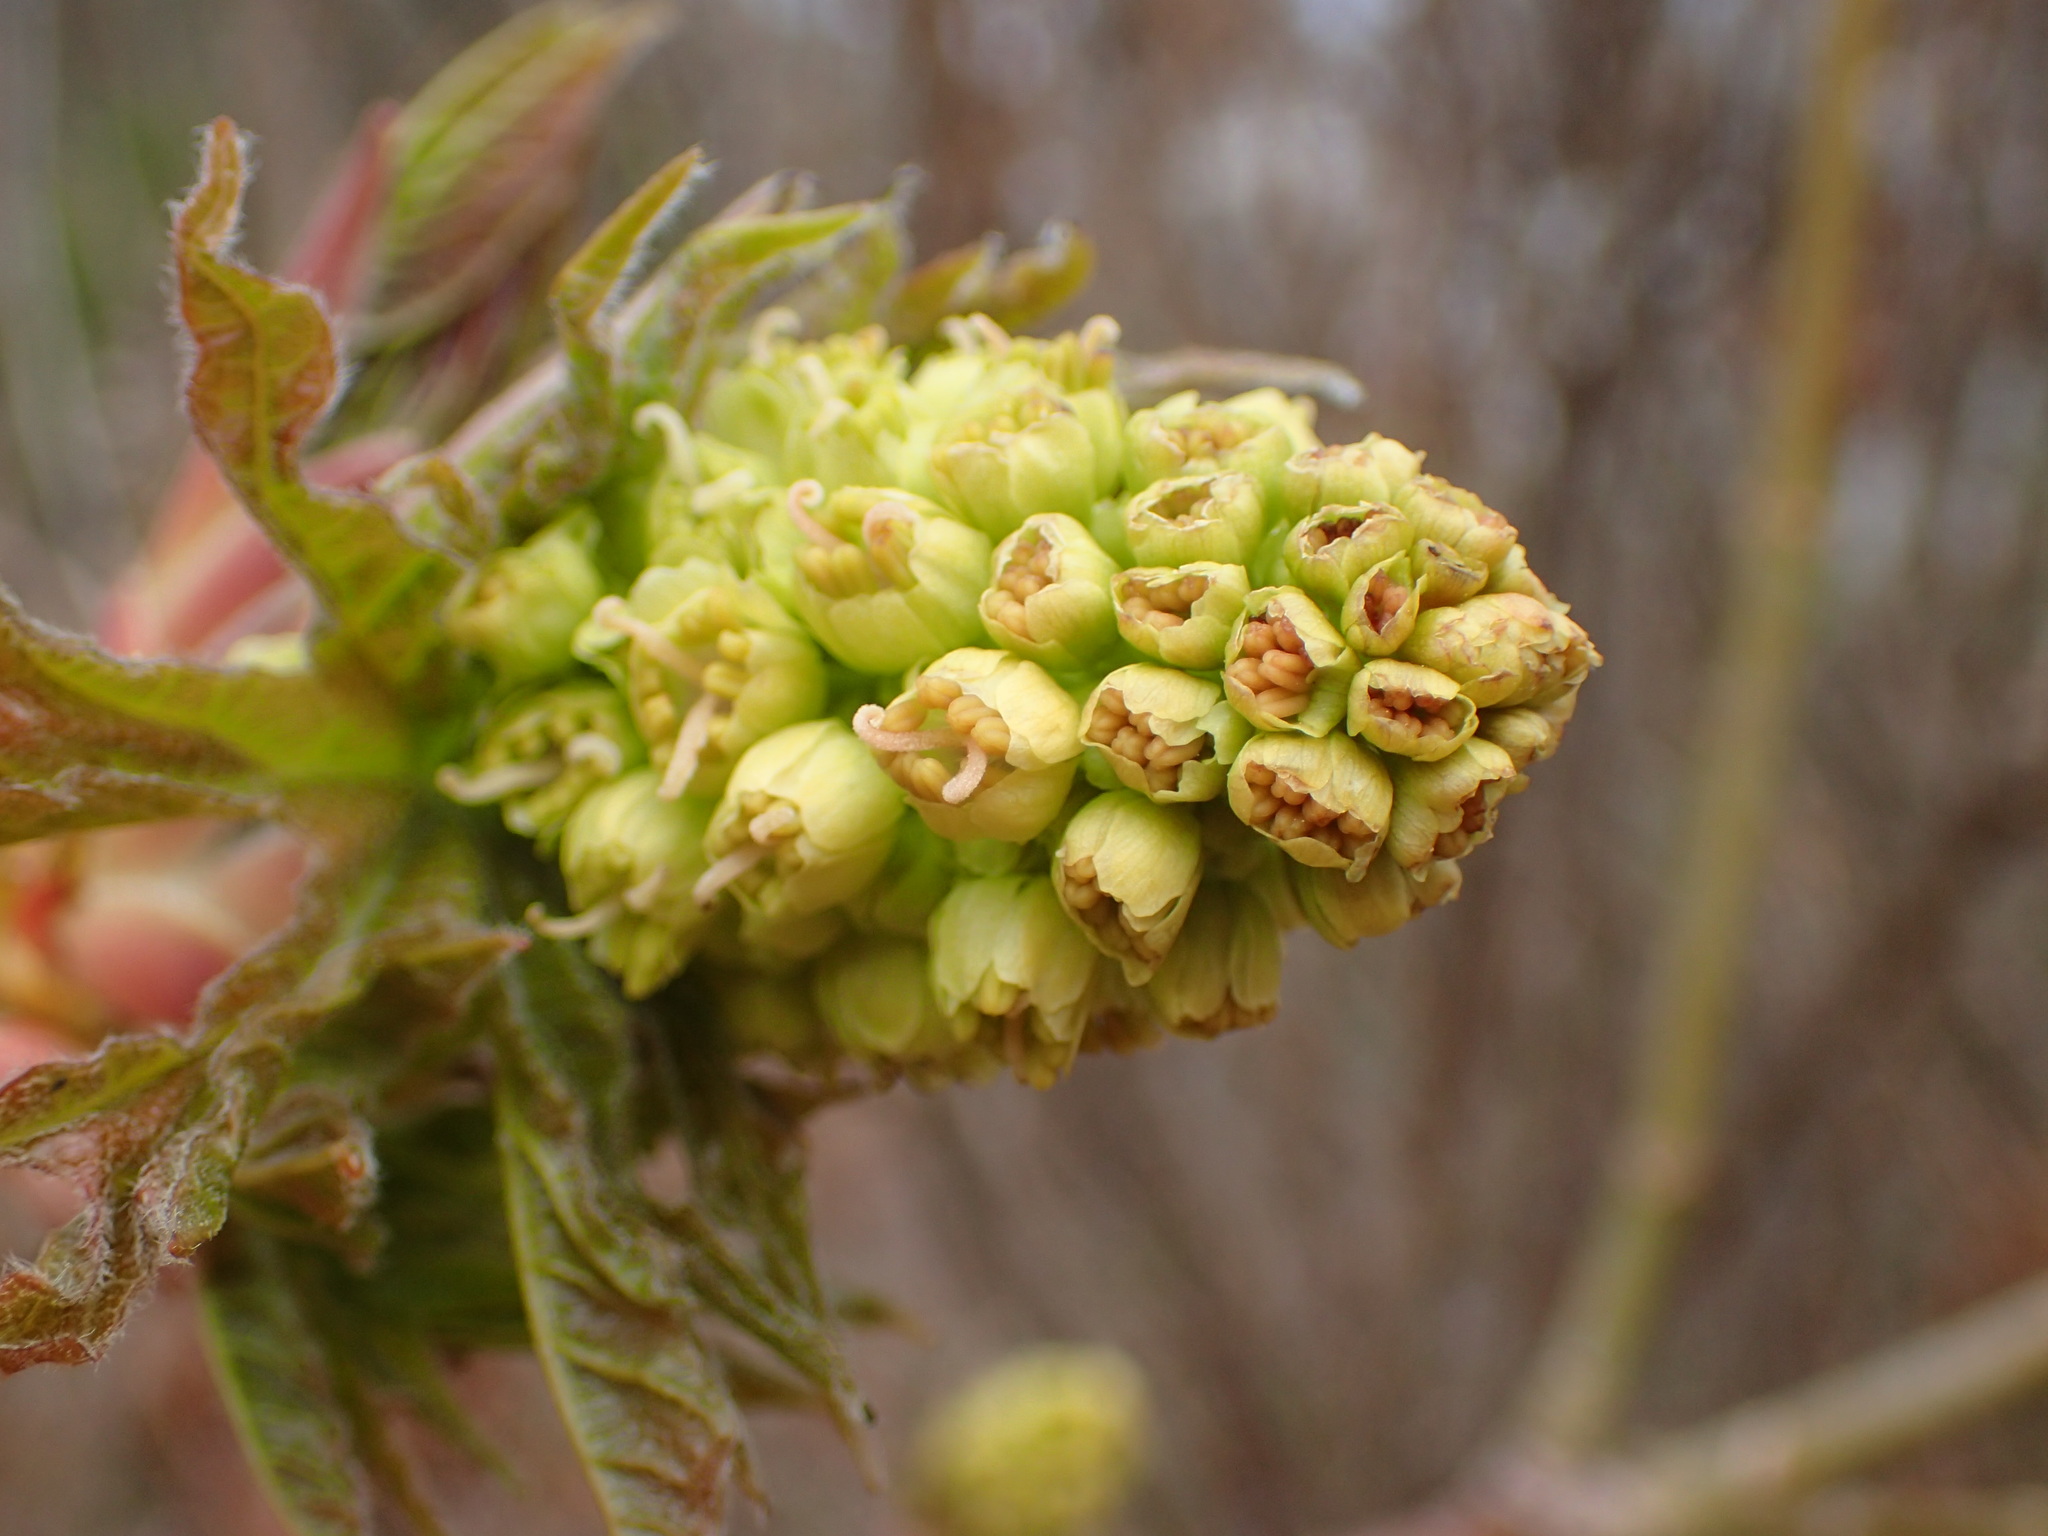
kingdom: Plantae
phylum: Tracheophyta
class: Magnoliopsida
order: Sapindales
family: Sapindaceae
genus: Acer
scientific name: Acer macrophyllum
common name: Oregon maple
